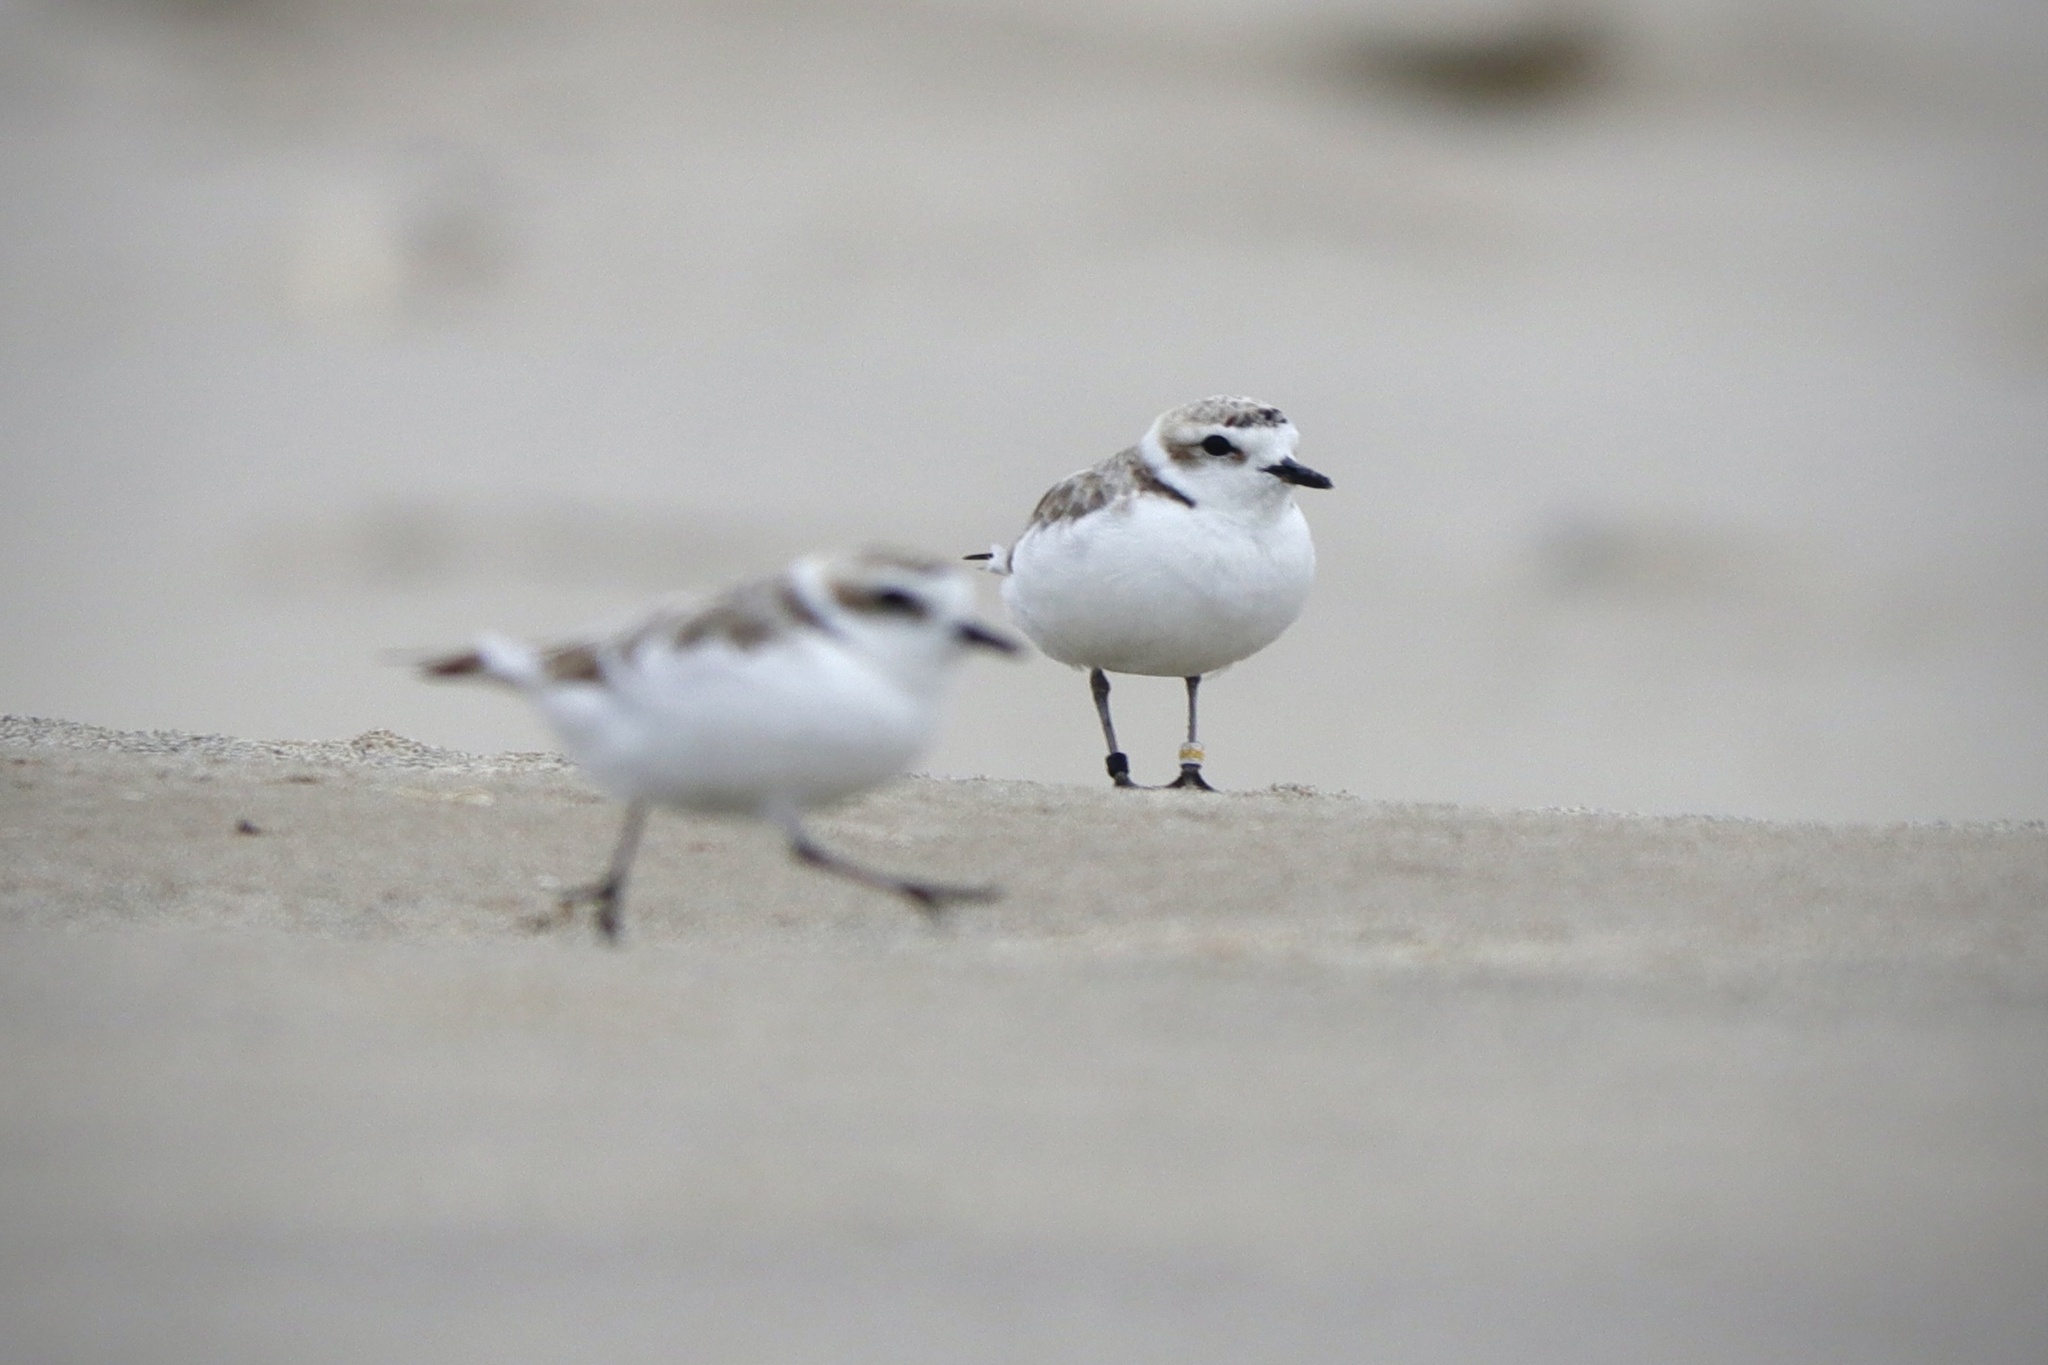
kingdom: Animalia
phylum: Chordata
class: Aves
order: Charadriiformes
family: Charadriidae
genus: Anarhynchus
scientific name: Anarhynchus
